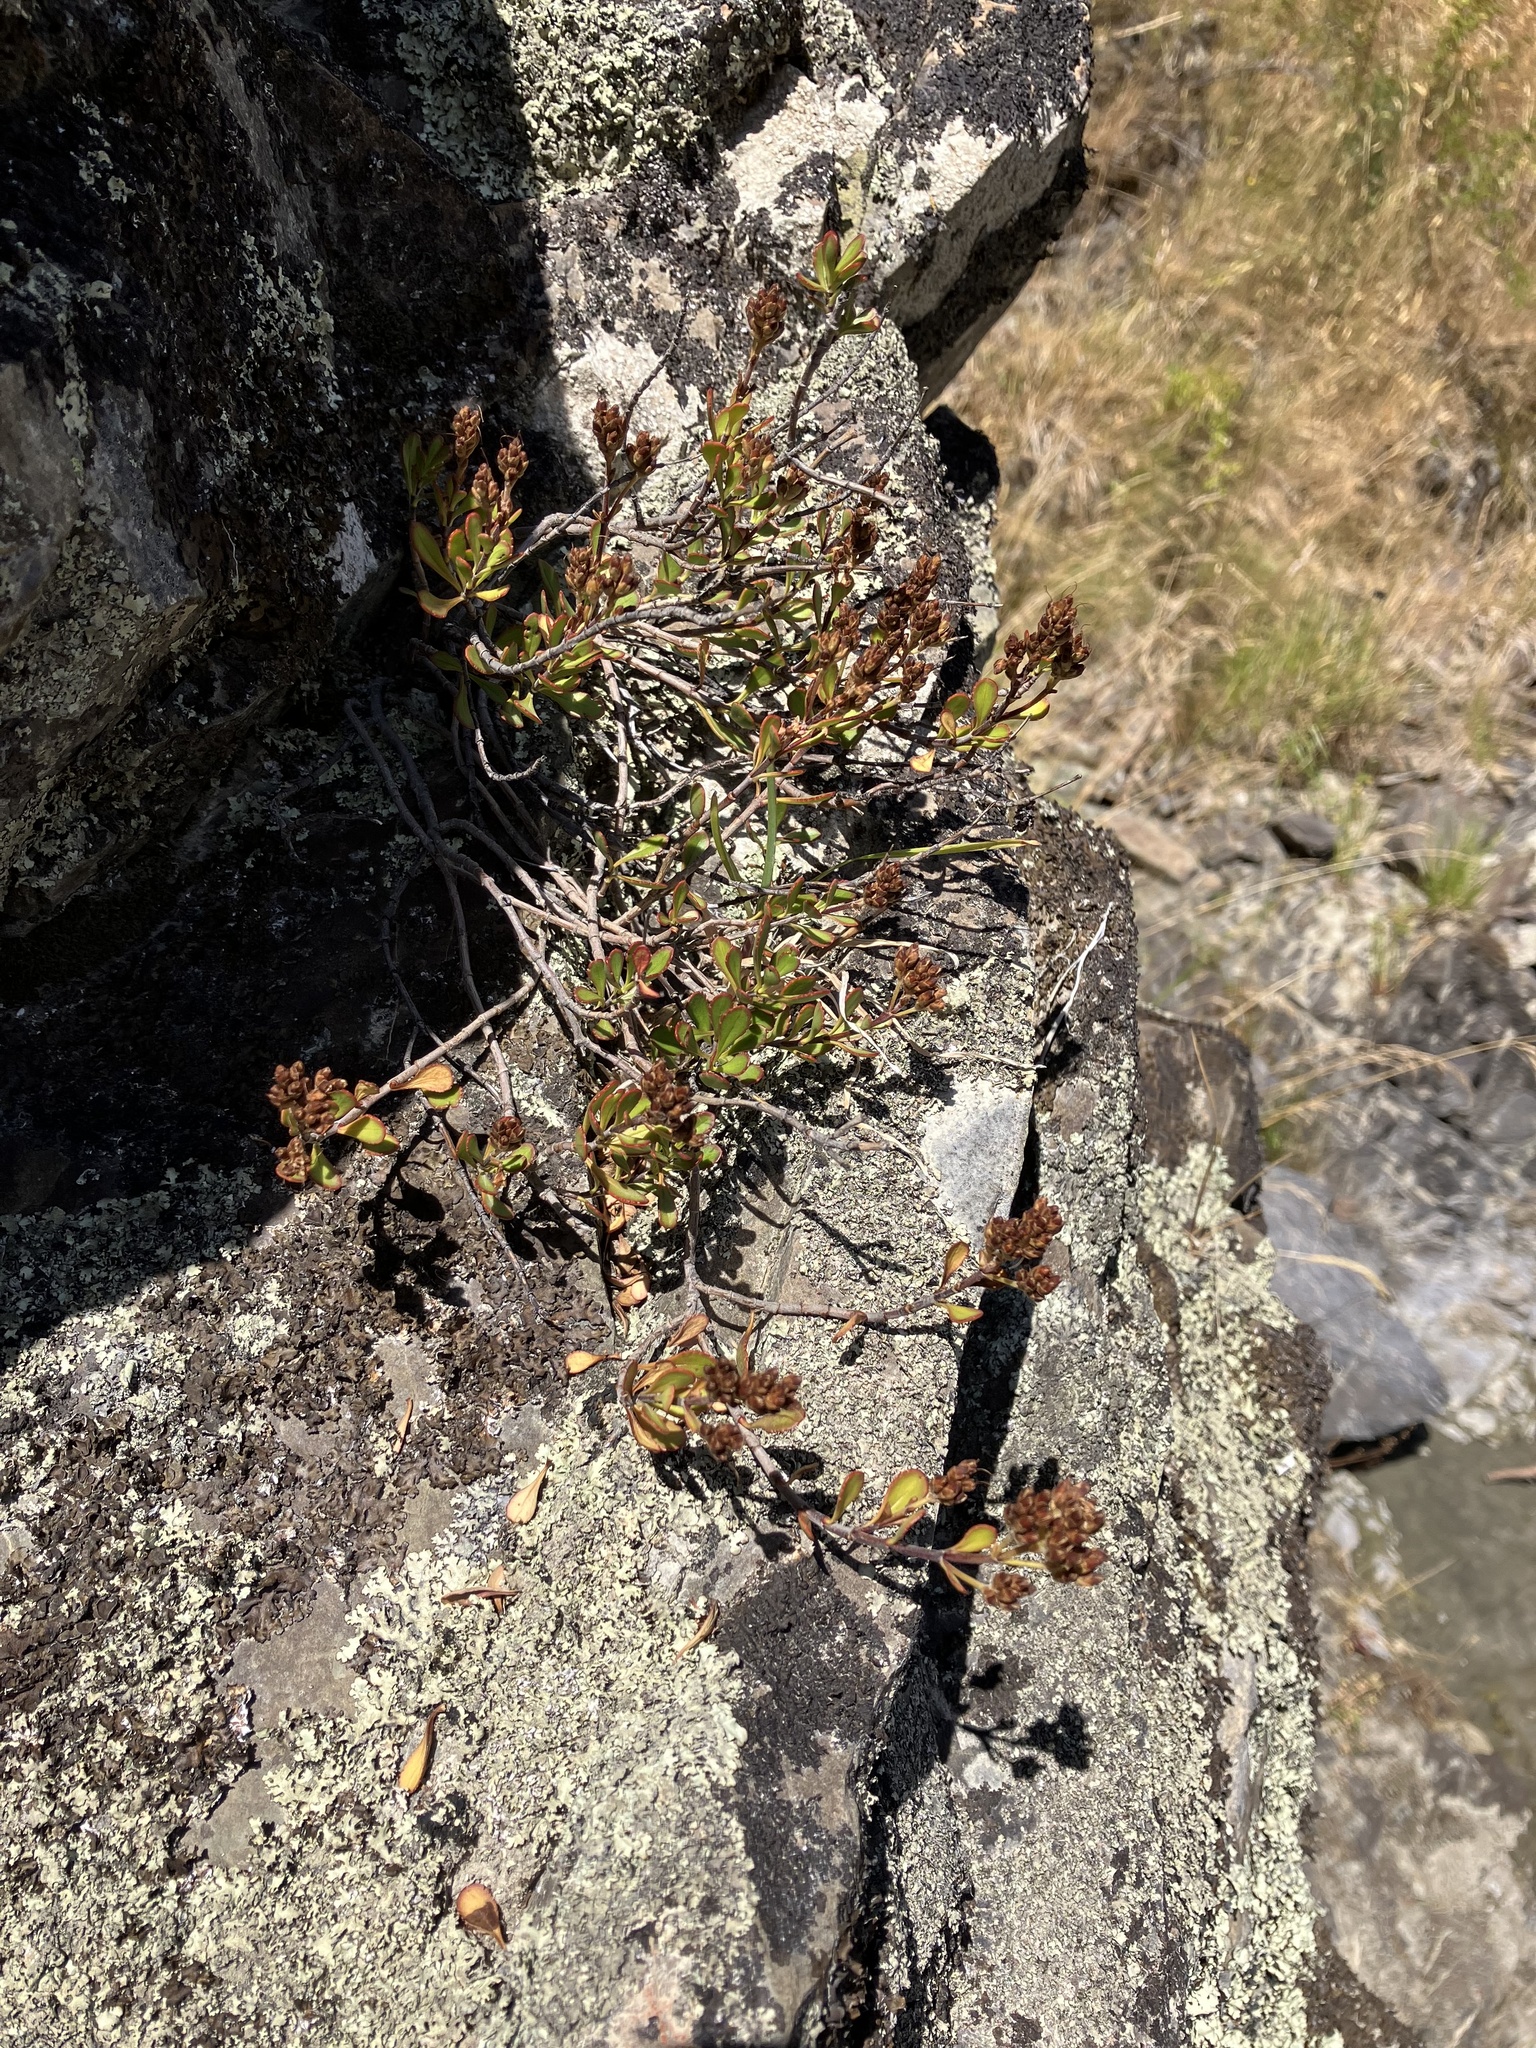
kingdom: Plantae
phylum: Tracheophyta
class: Magnoliopsida
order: Lamiales
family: Plantaginaceae
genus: Veronica
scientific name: Veronica raoulii
